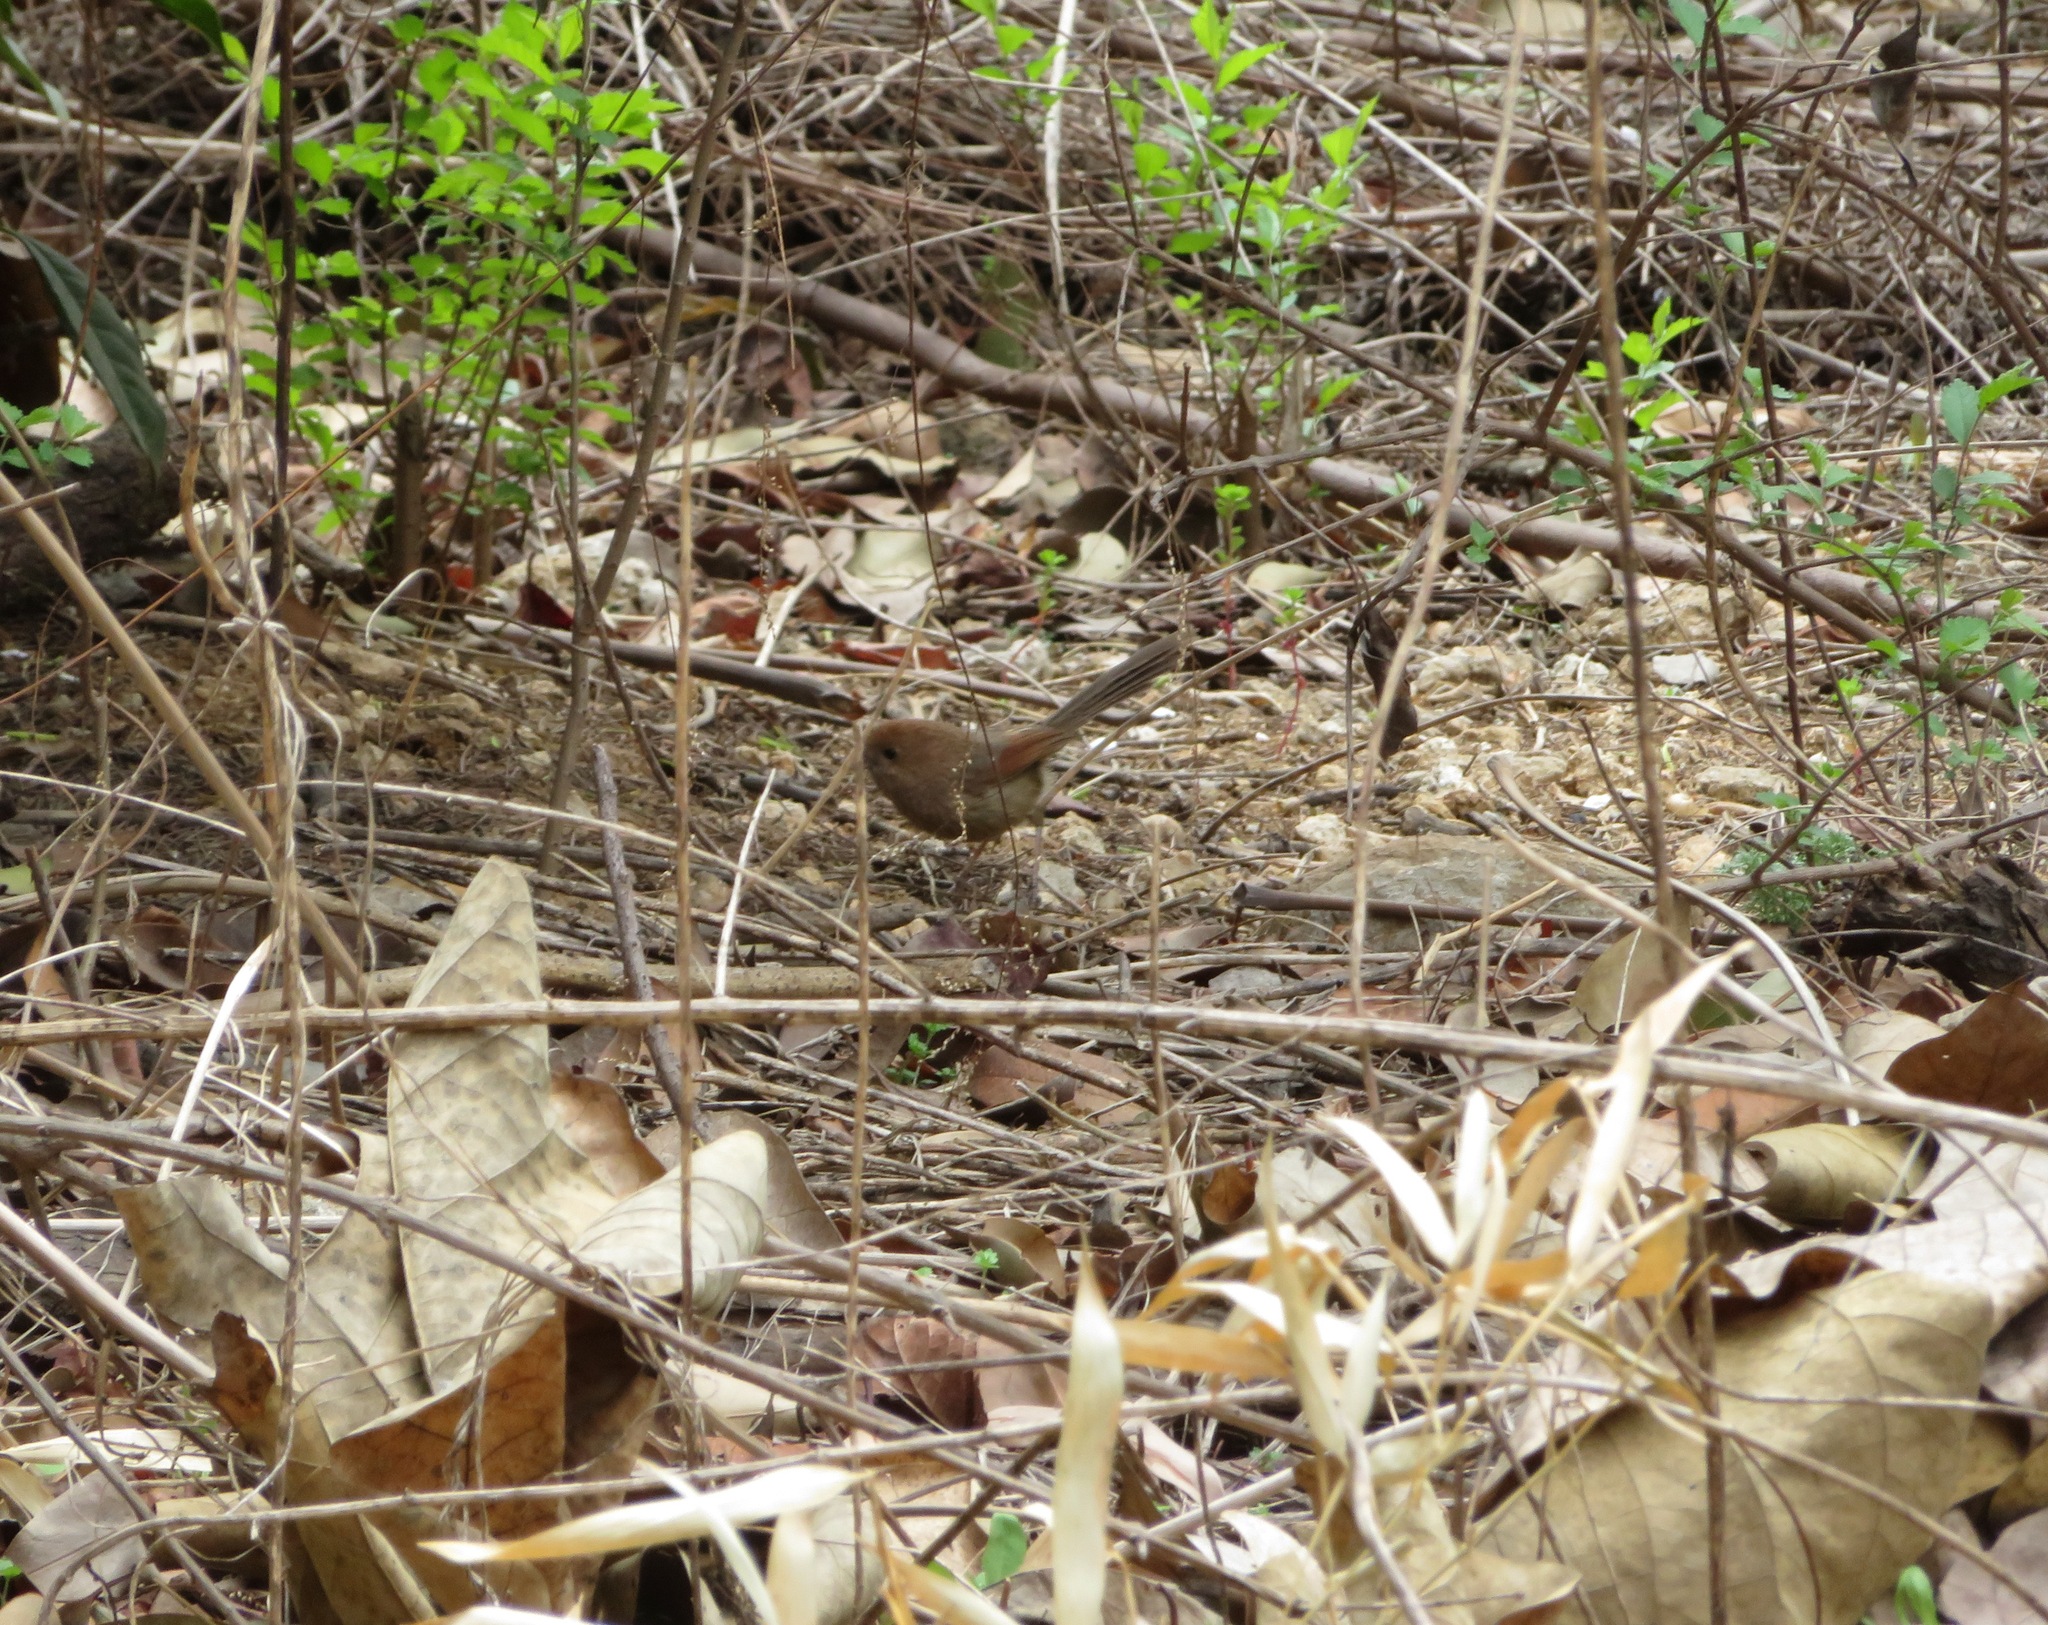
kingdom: Animalia
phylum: Chordata
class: Aves
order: Passeriformes
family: Sylviidae
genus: Sinosuthora
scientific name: Sinosuthora webbiana
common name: Vinous-throated parrotbill
